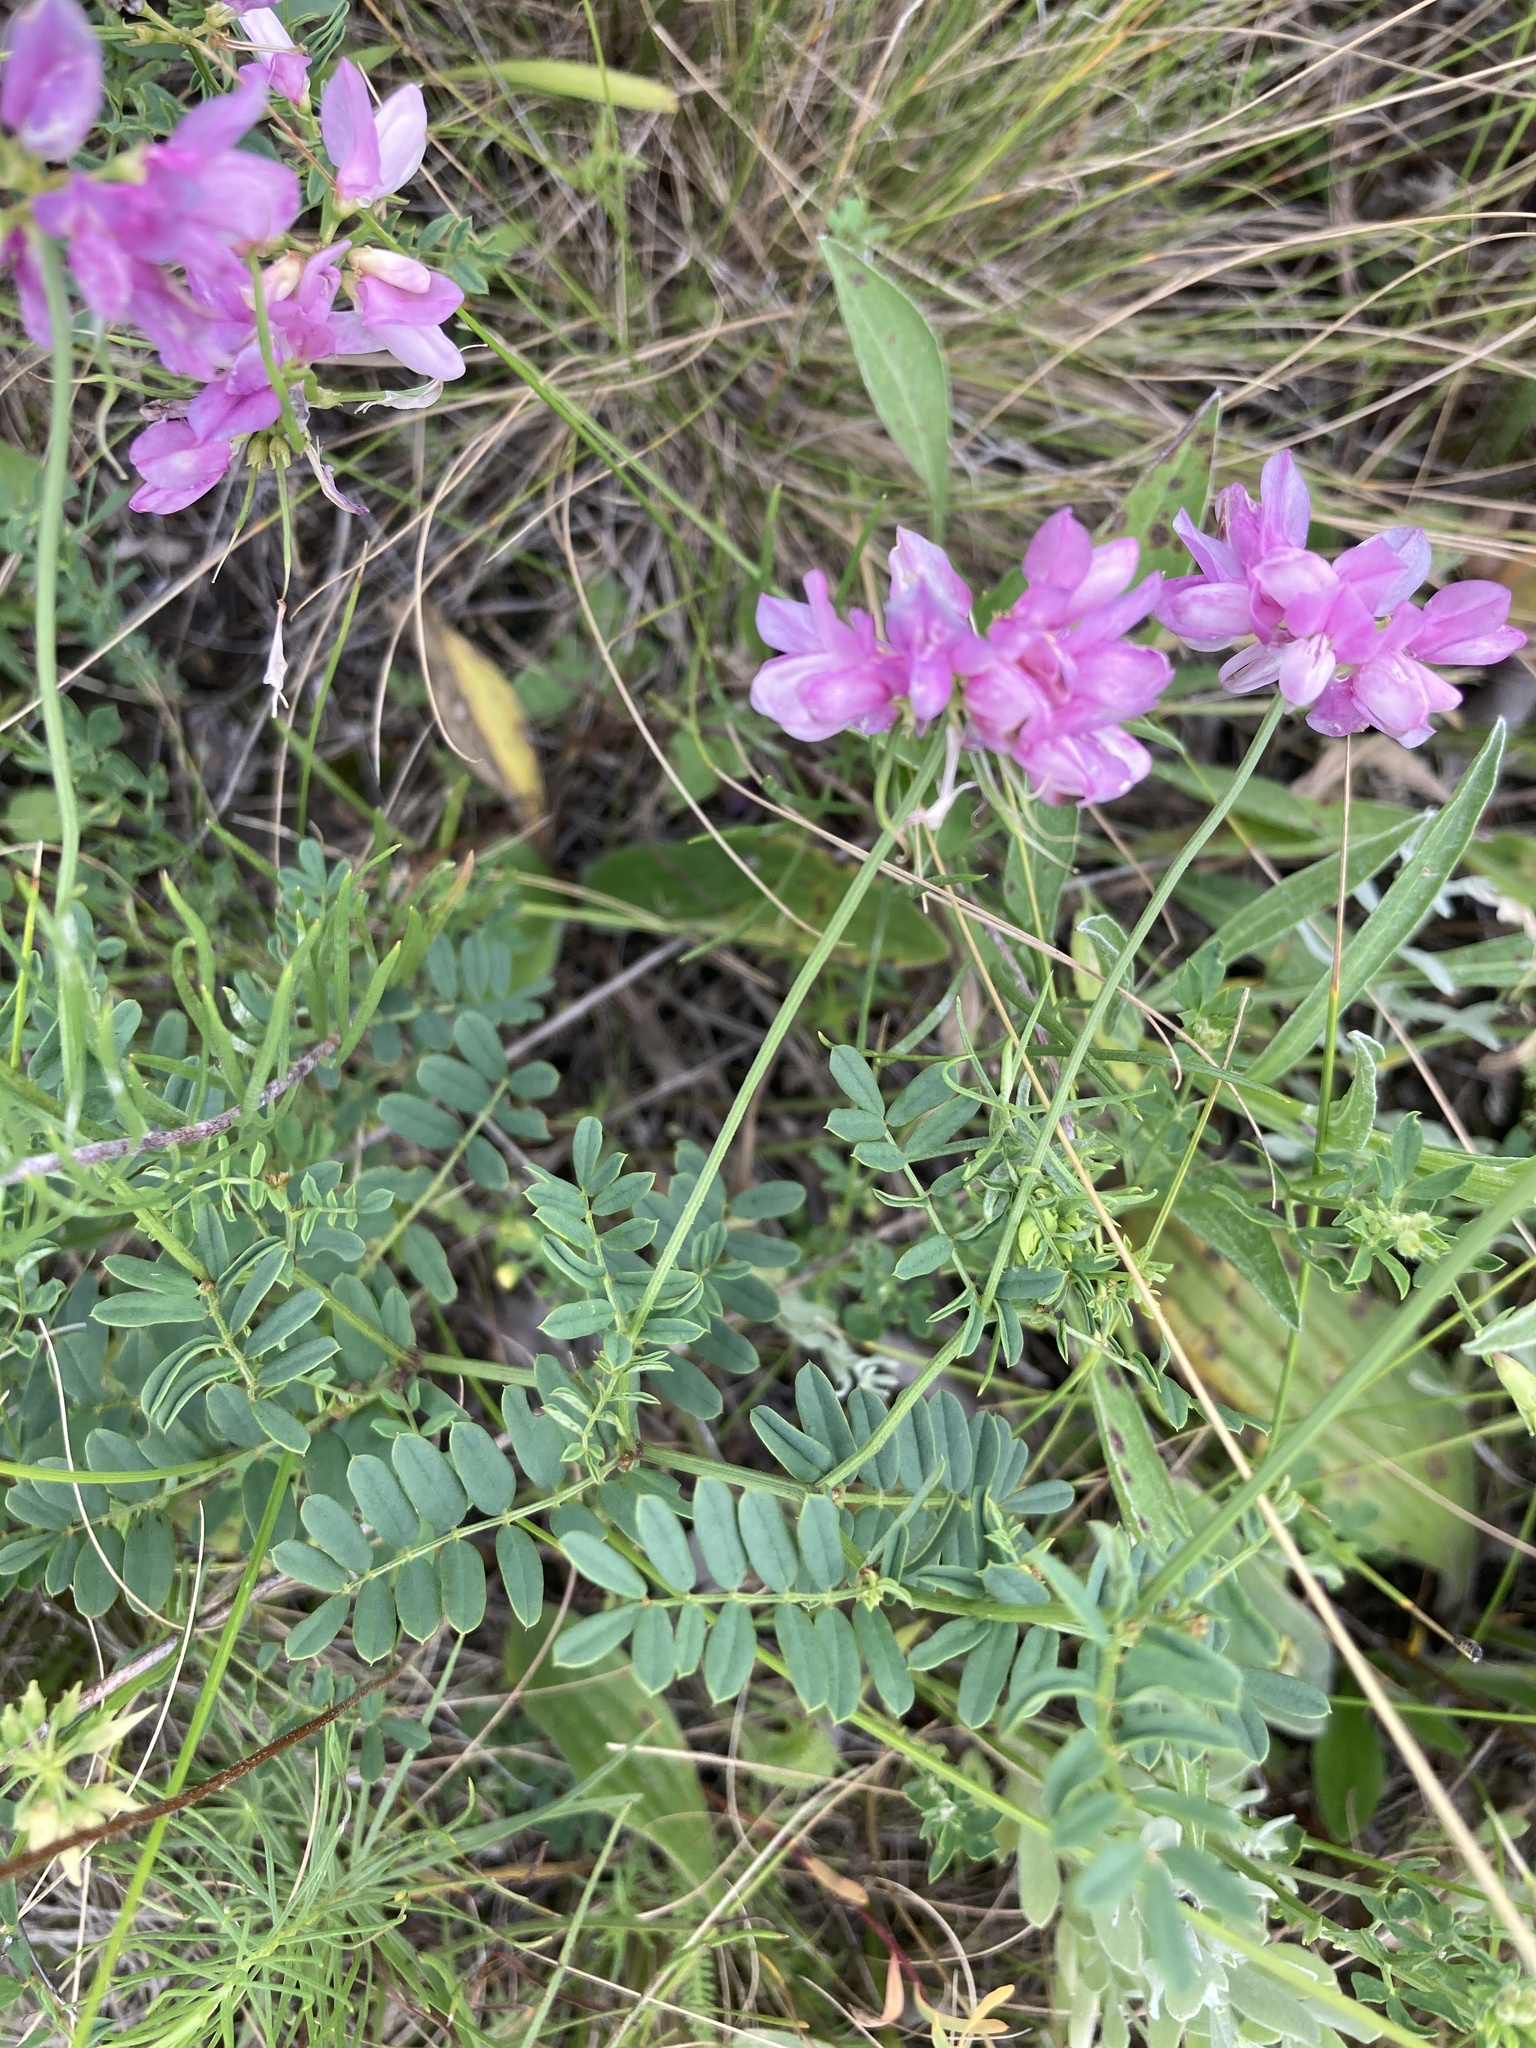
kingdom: Plantae
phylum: Tracheophyta
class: Magnoliopsida
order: Fabales
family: Fabaceae
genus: Coronilla
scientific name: Coronilla varia
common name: Crownvetch
